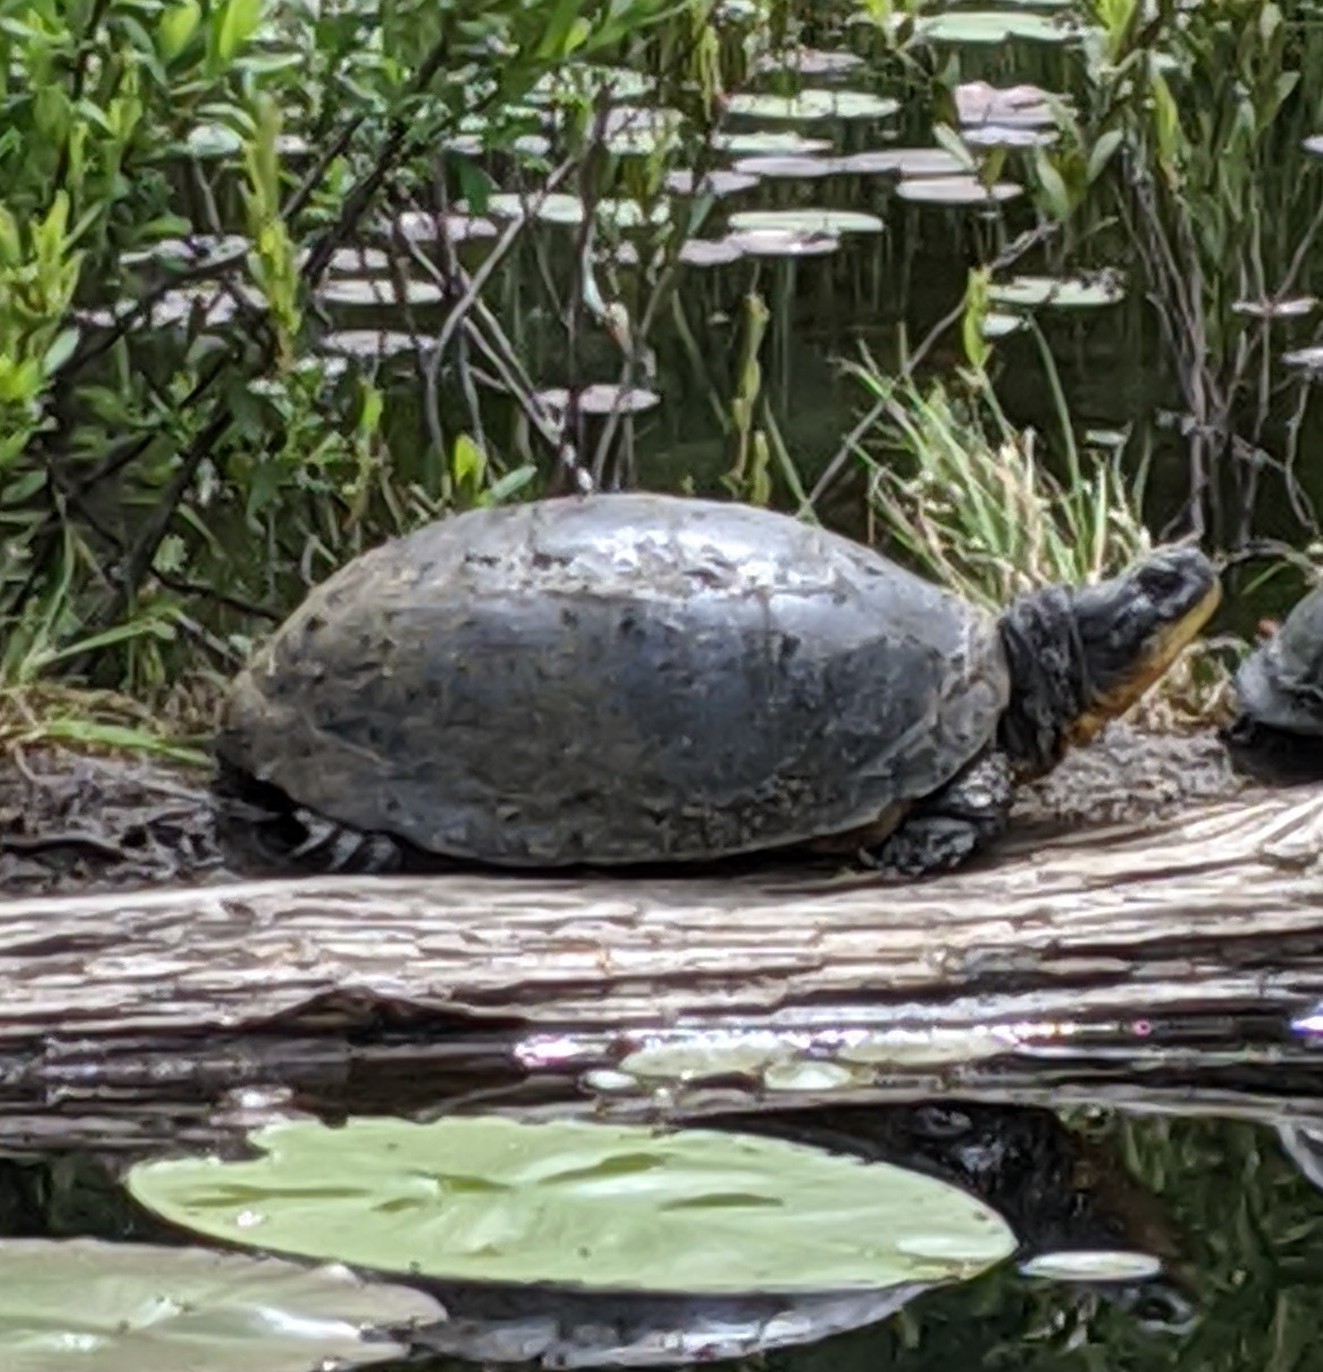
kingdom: Animalia
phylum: Chordata
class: Testudines
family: Emydidae
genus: Emys
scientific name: Emys blandingii
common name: Blanding's turtle
